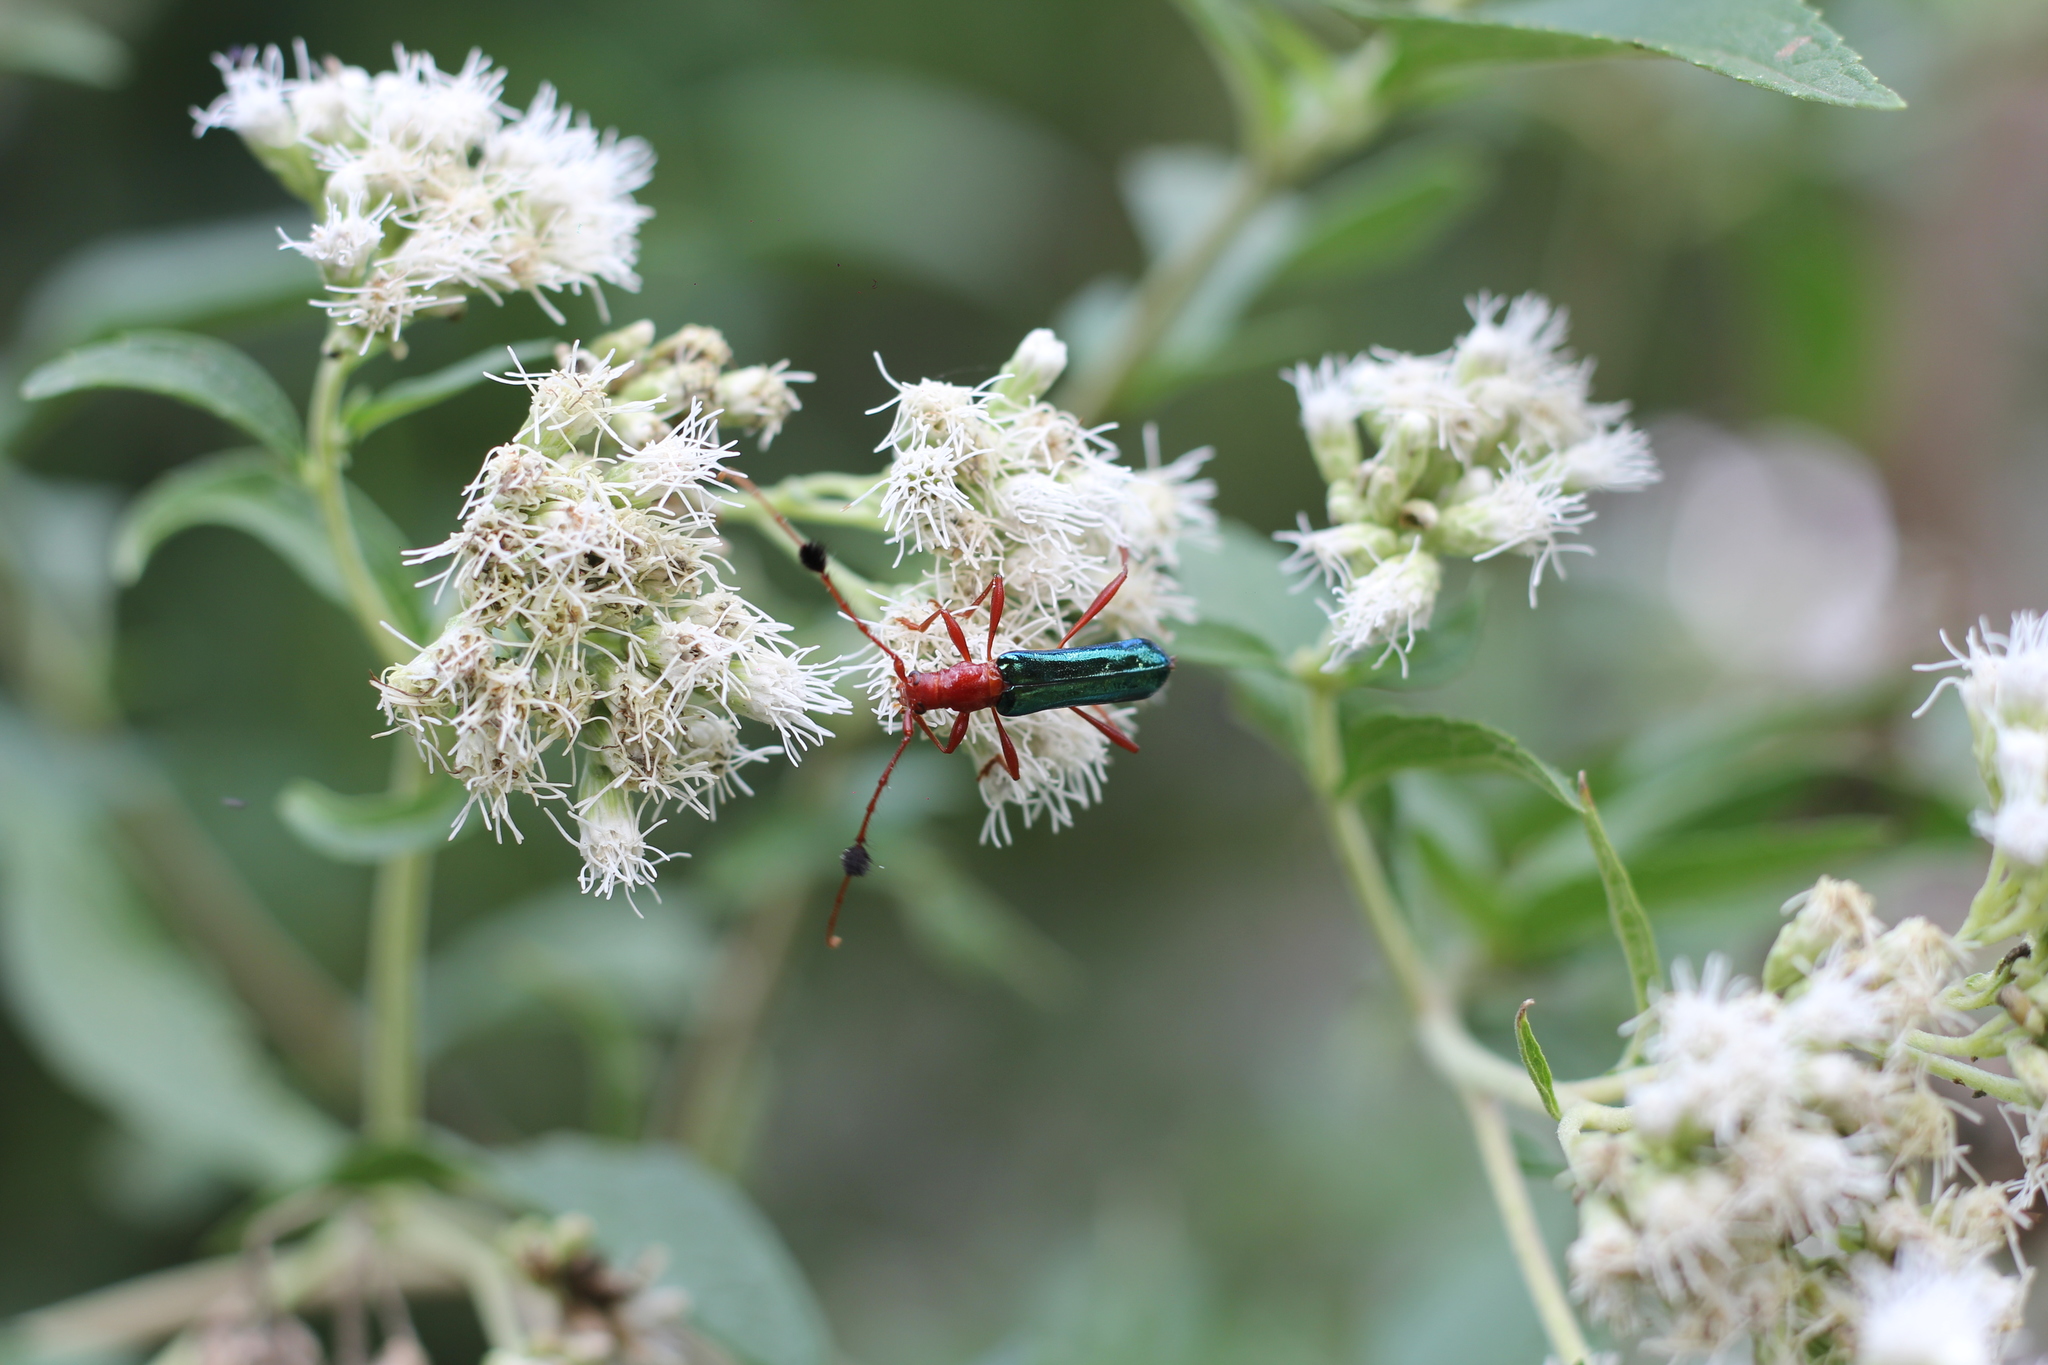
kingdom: Animalia
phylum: Arthropoda
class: Insecta
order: Coleoptera
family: Cerambycidae
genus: Paromoeocerus
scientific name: Paromoeocerus barbicornis
